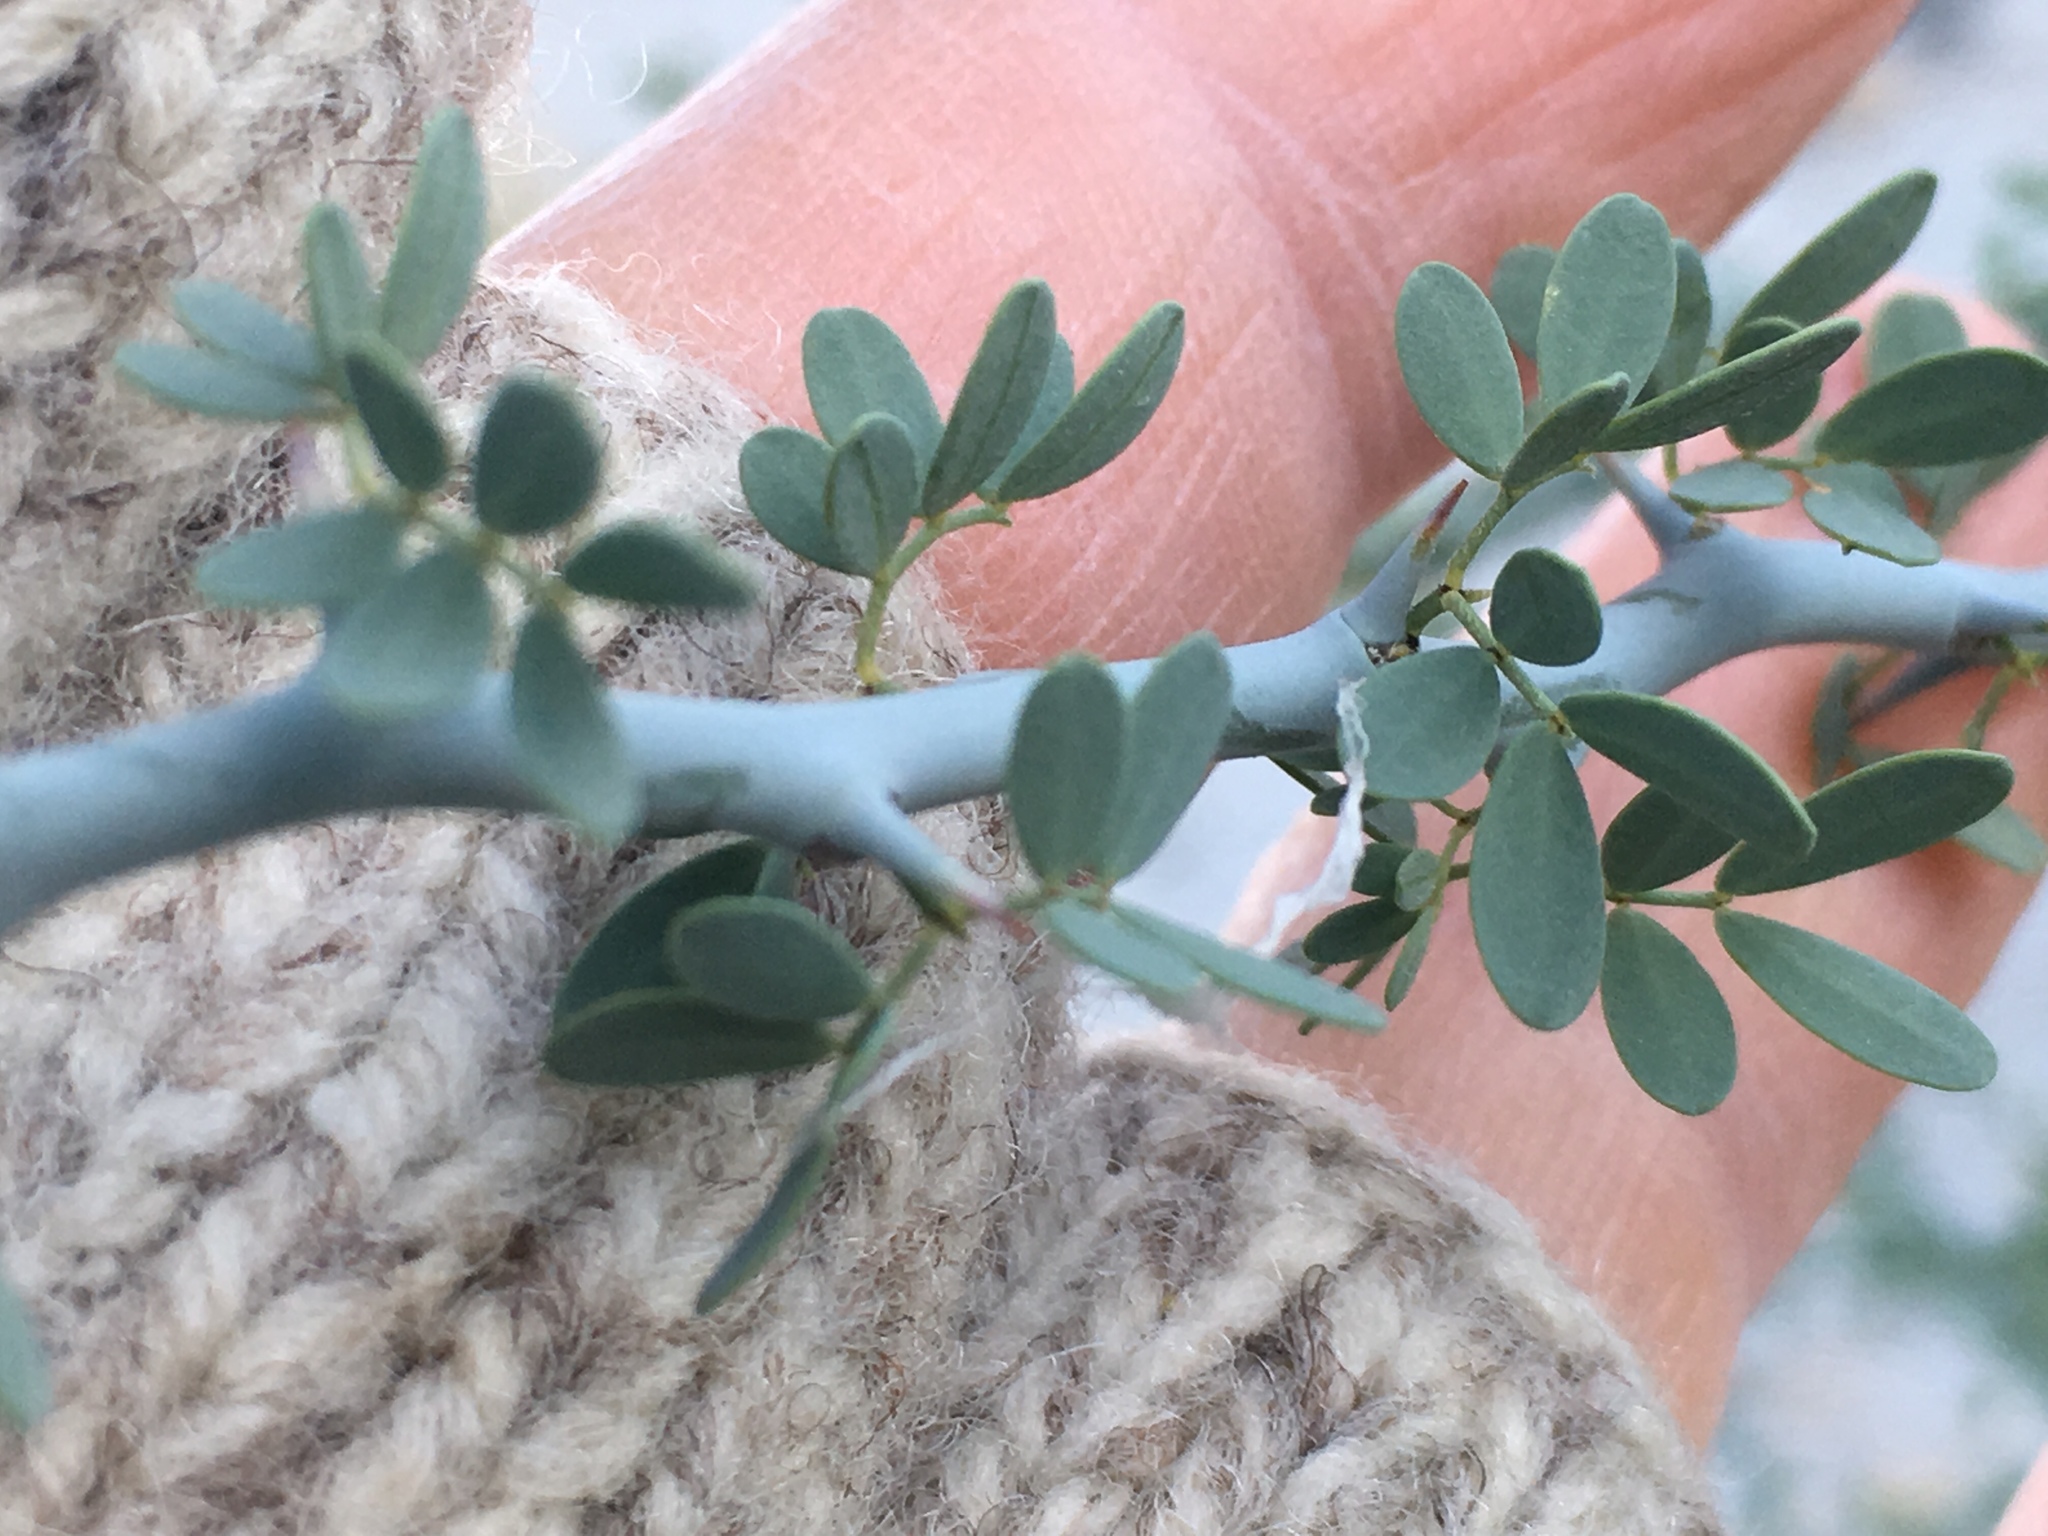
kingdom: Plantae
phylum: Tracheophyta
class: Magnoliopsida
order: Fabales
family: Fabaceae
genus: Parkinsonia
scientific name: Parkinsonia florida
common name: Blue paloverde
